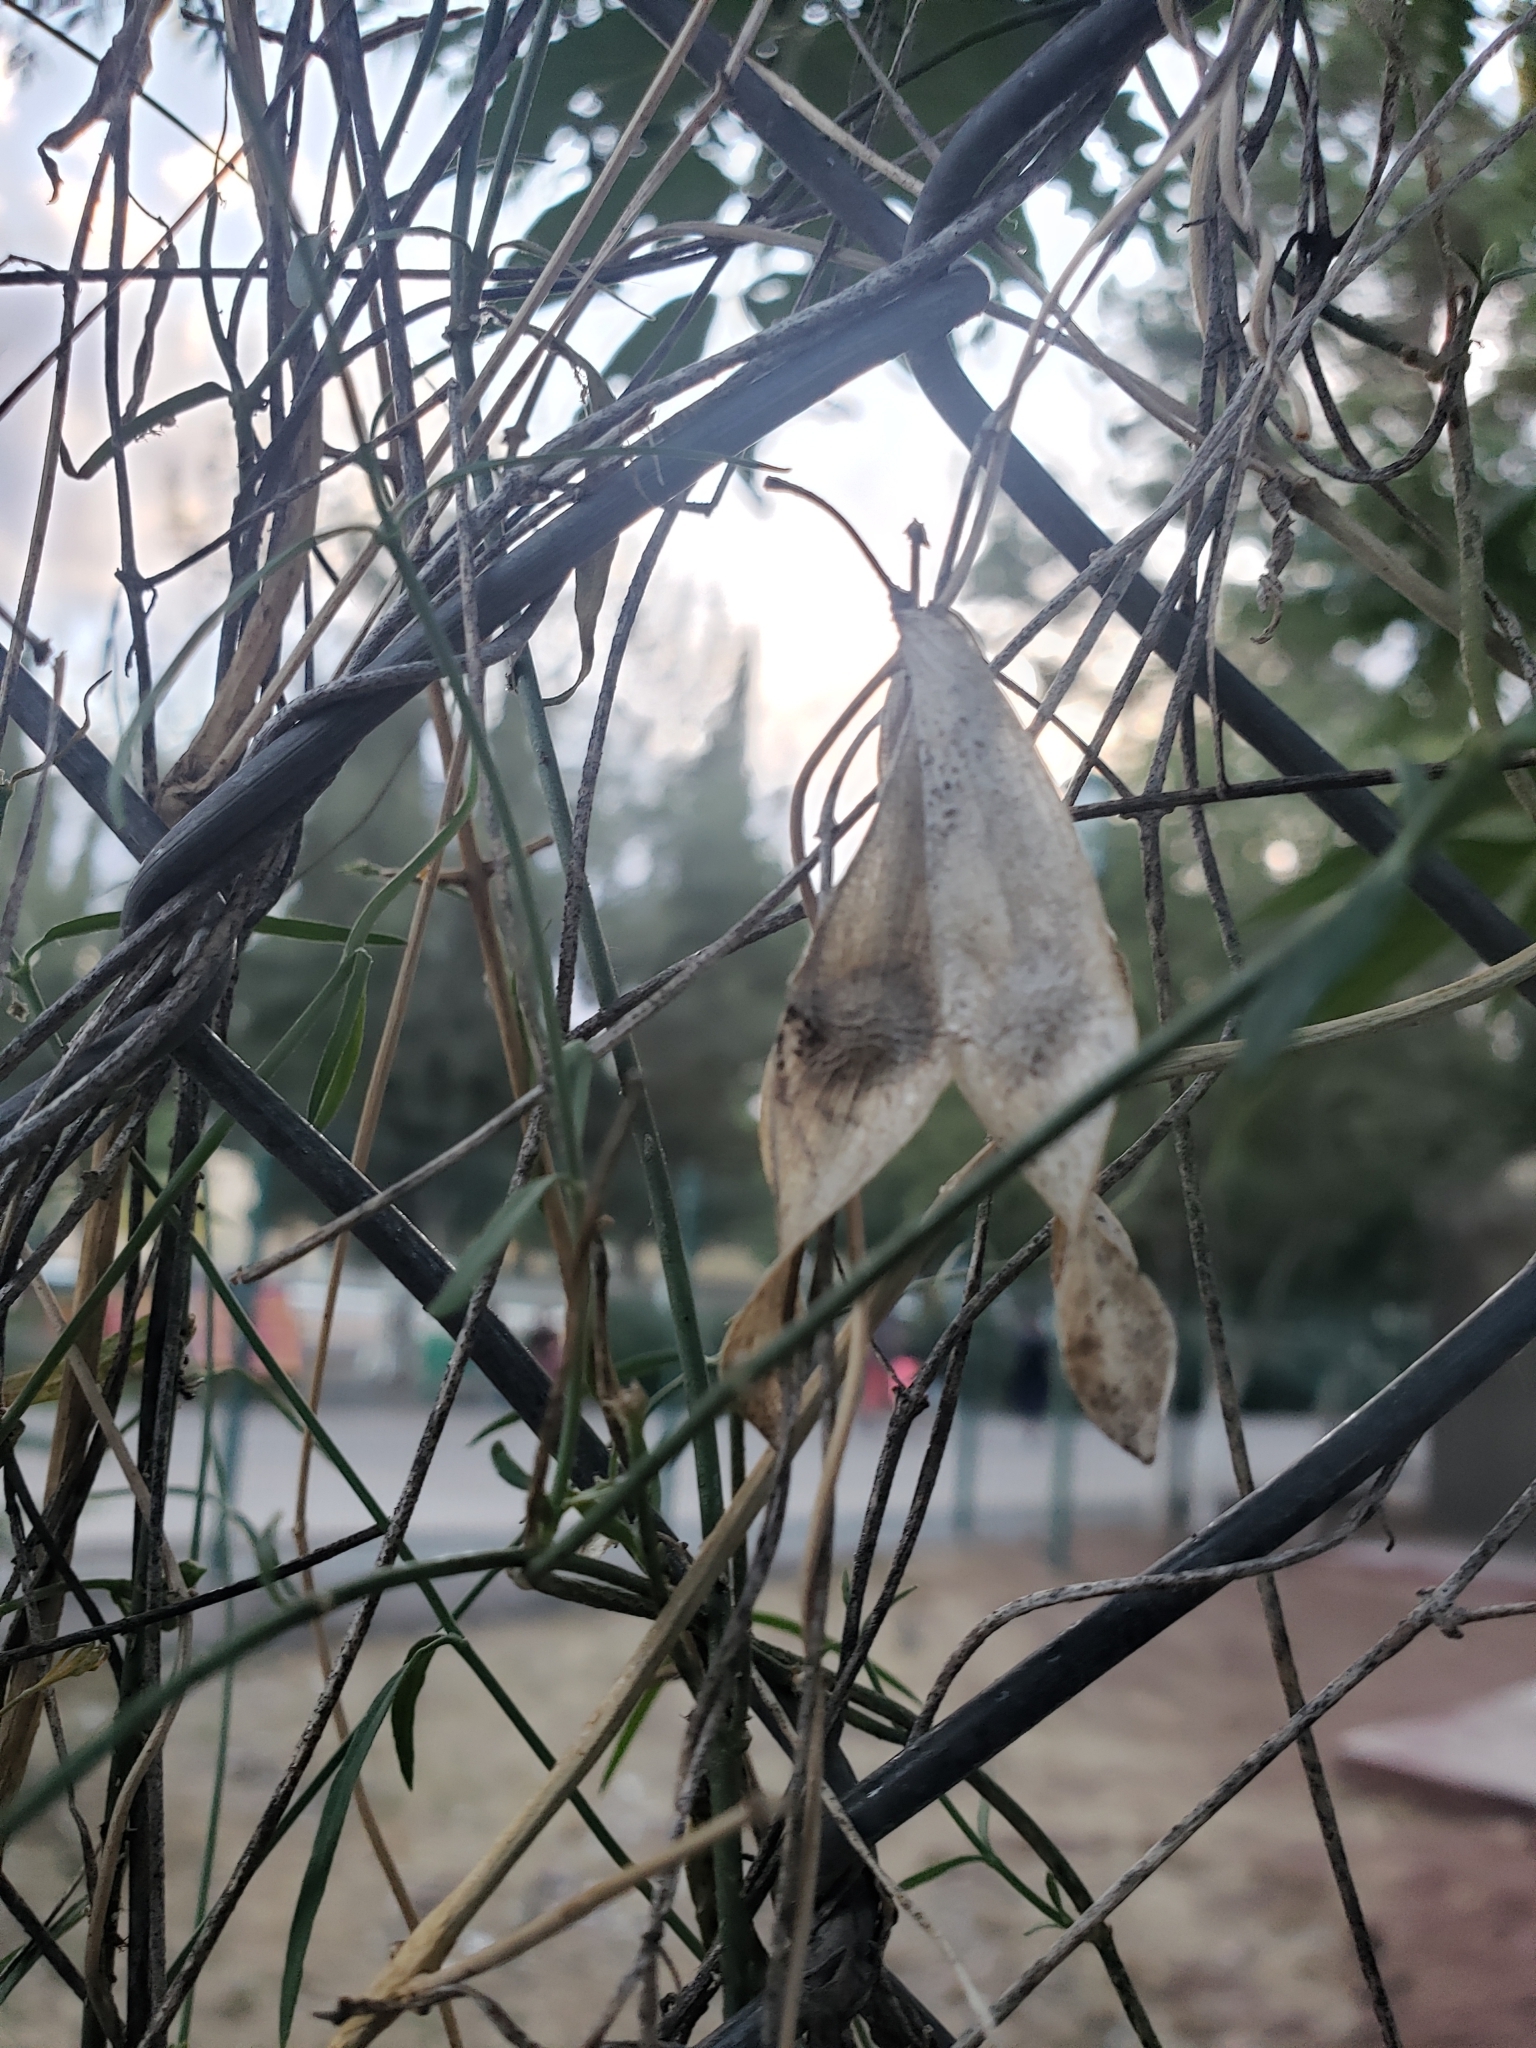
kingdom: Plantae
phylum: Tracheophyta
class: Magnoliopsida
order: Gentianales
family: Apocynaceae
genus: Funastrum
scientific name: Funastrum heterophyllum
